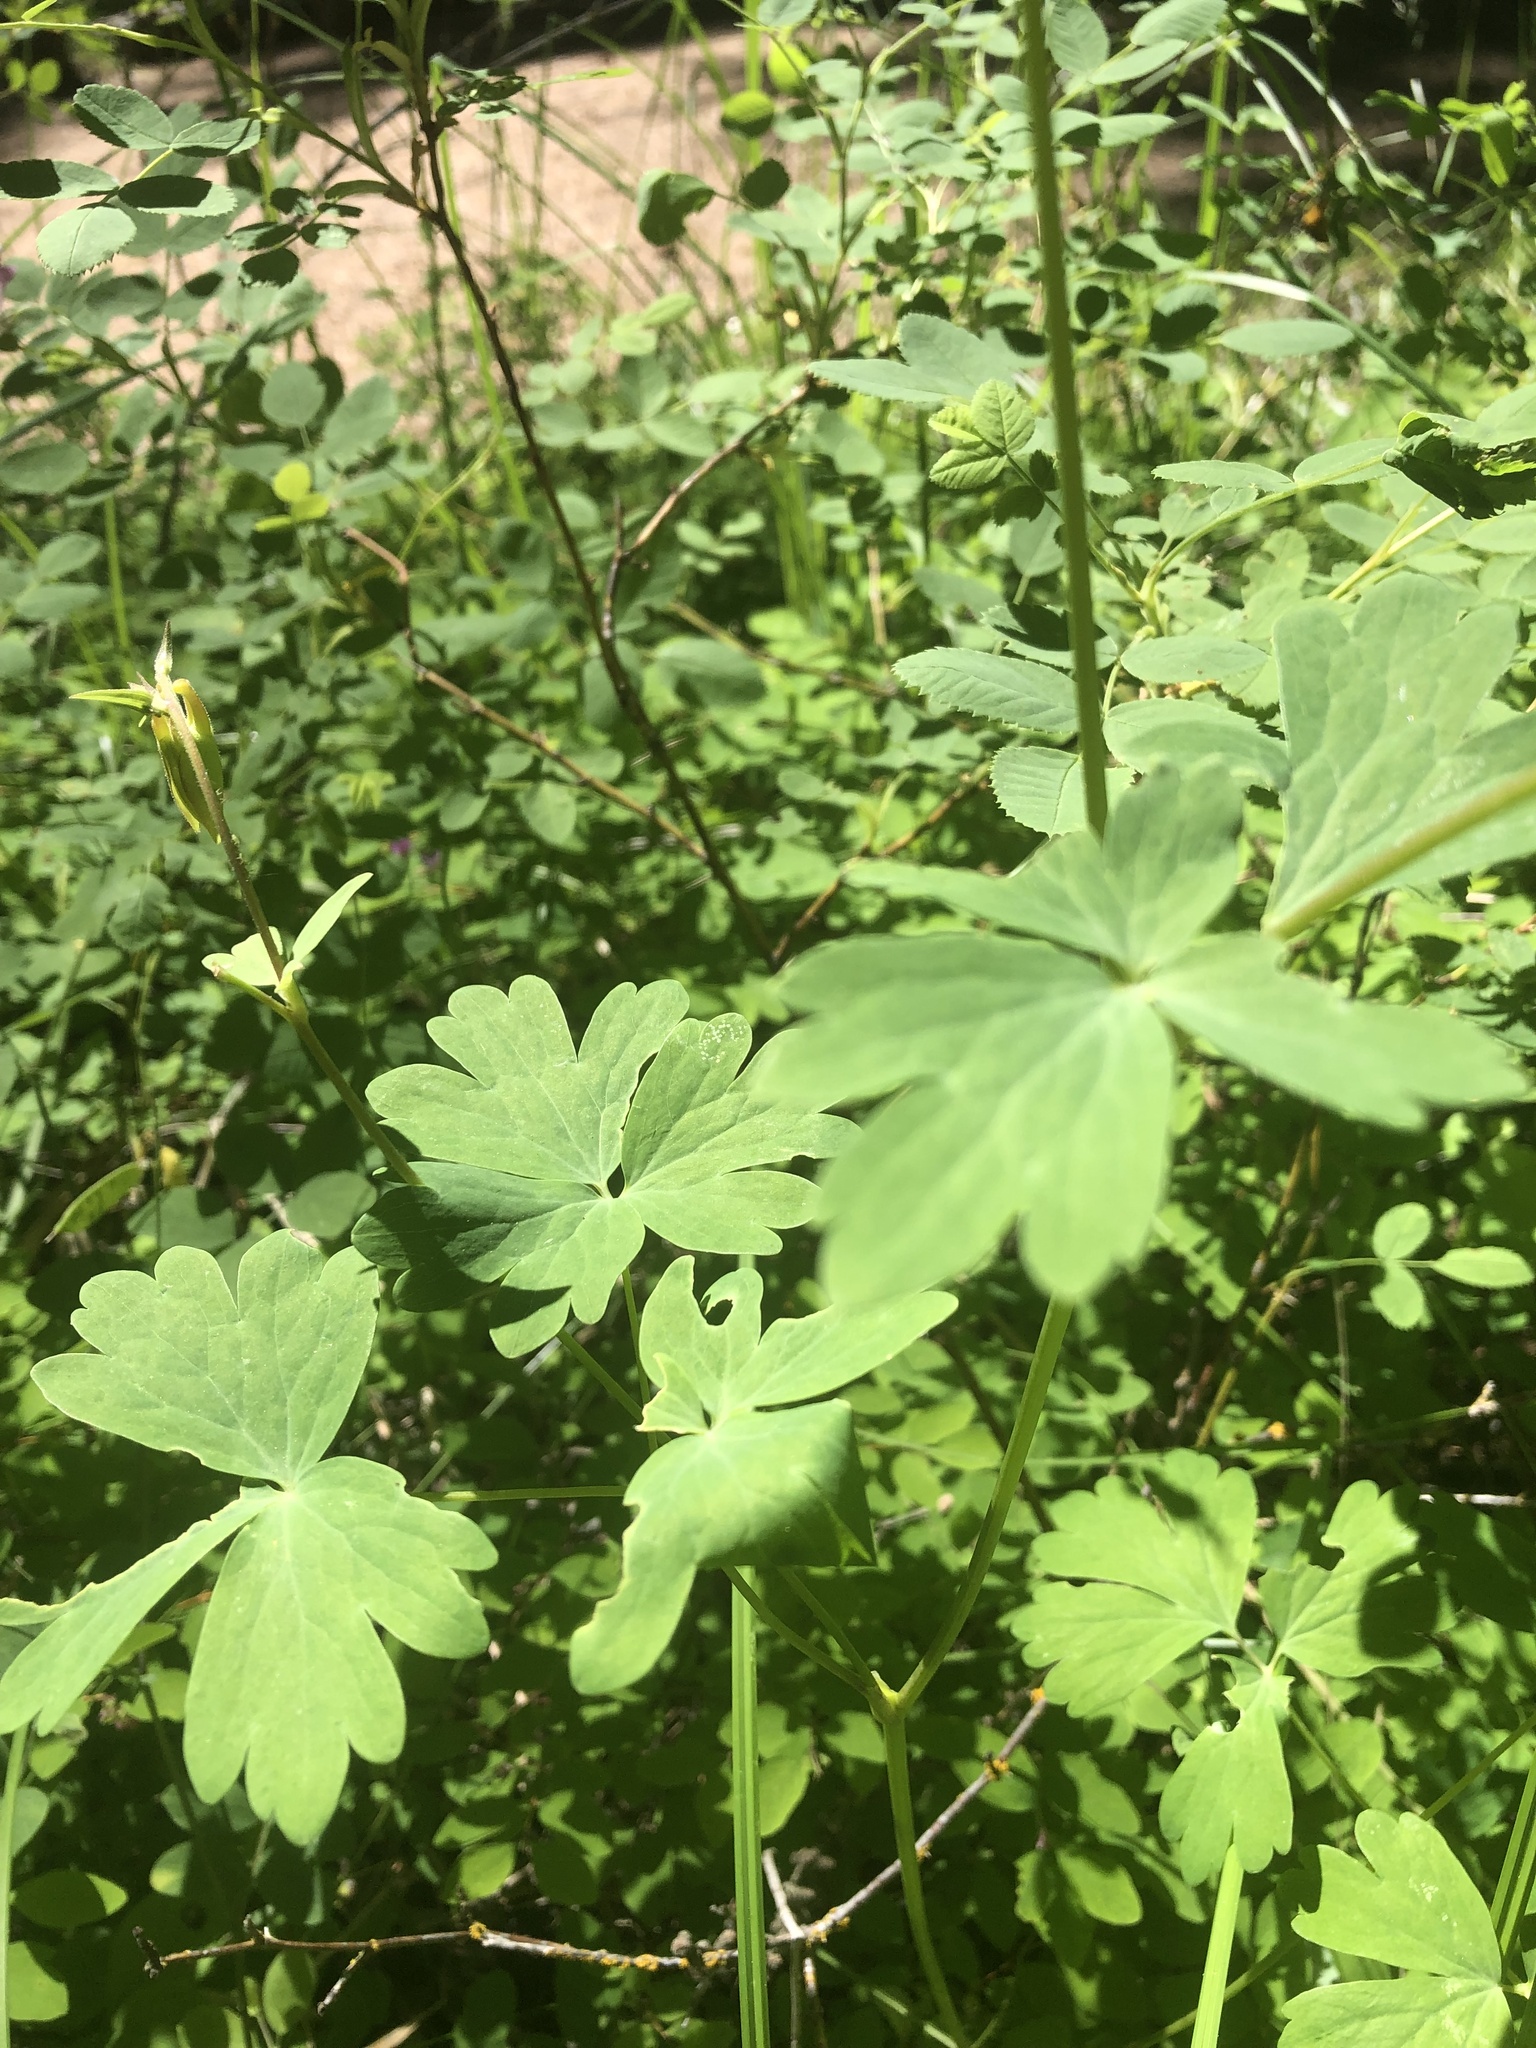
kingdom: Plantae
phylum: Tracheophyta
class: Magnoliopsida
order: Ranunculales
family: Ranunculaceae
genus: Aquilegia
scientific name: Aquilegia formosa
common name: Sitka columbine
